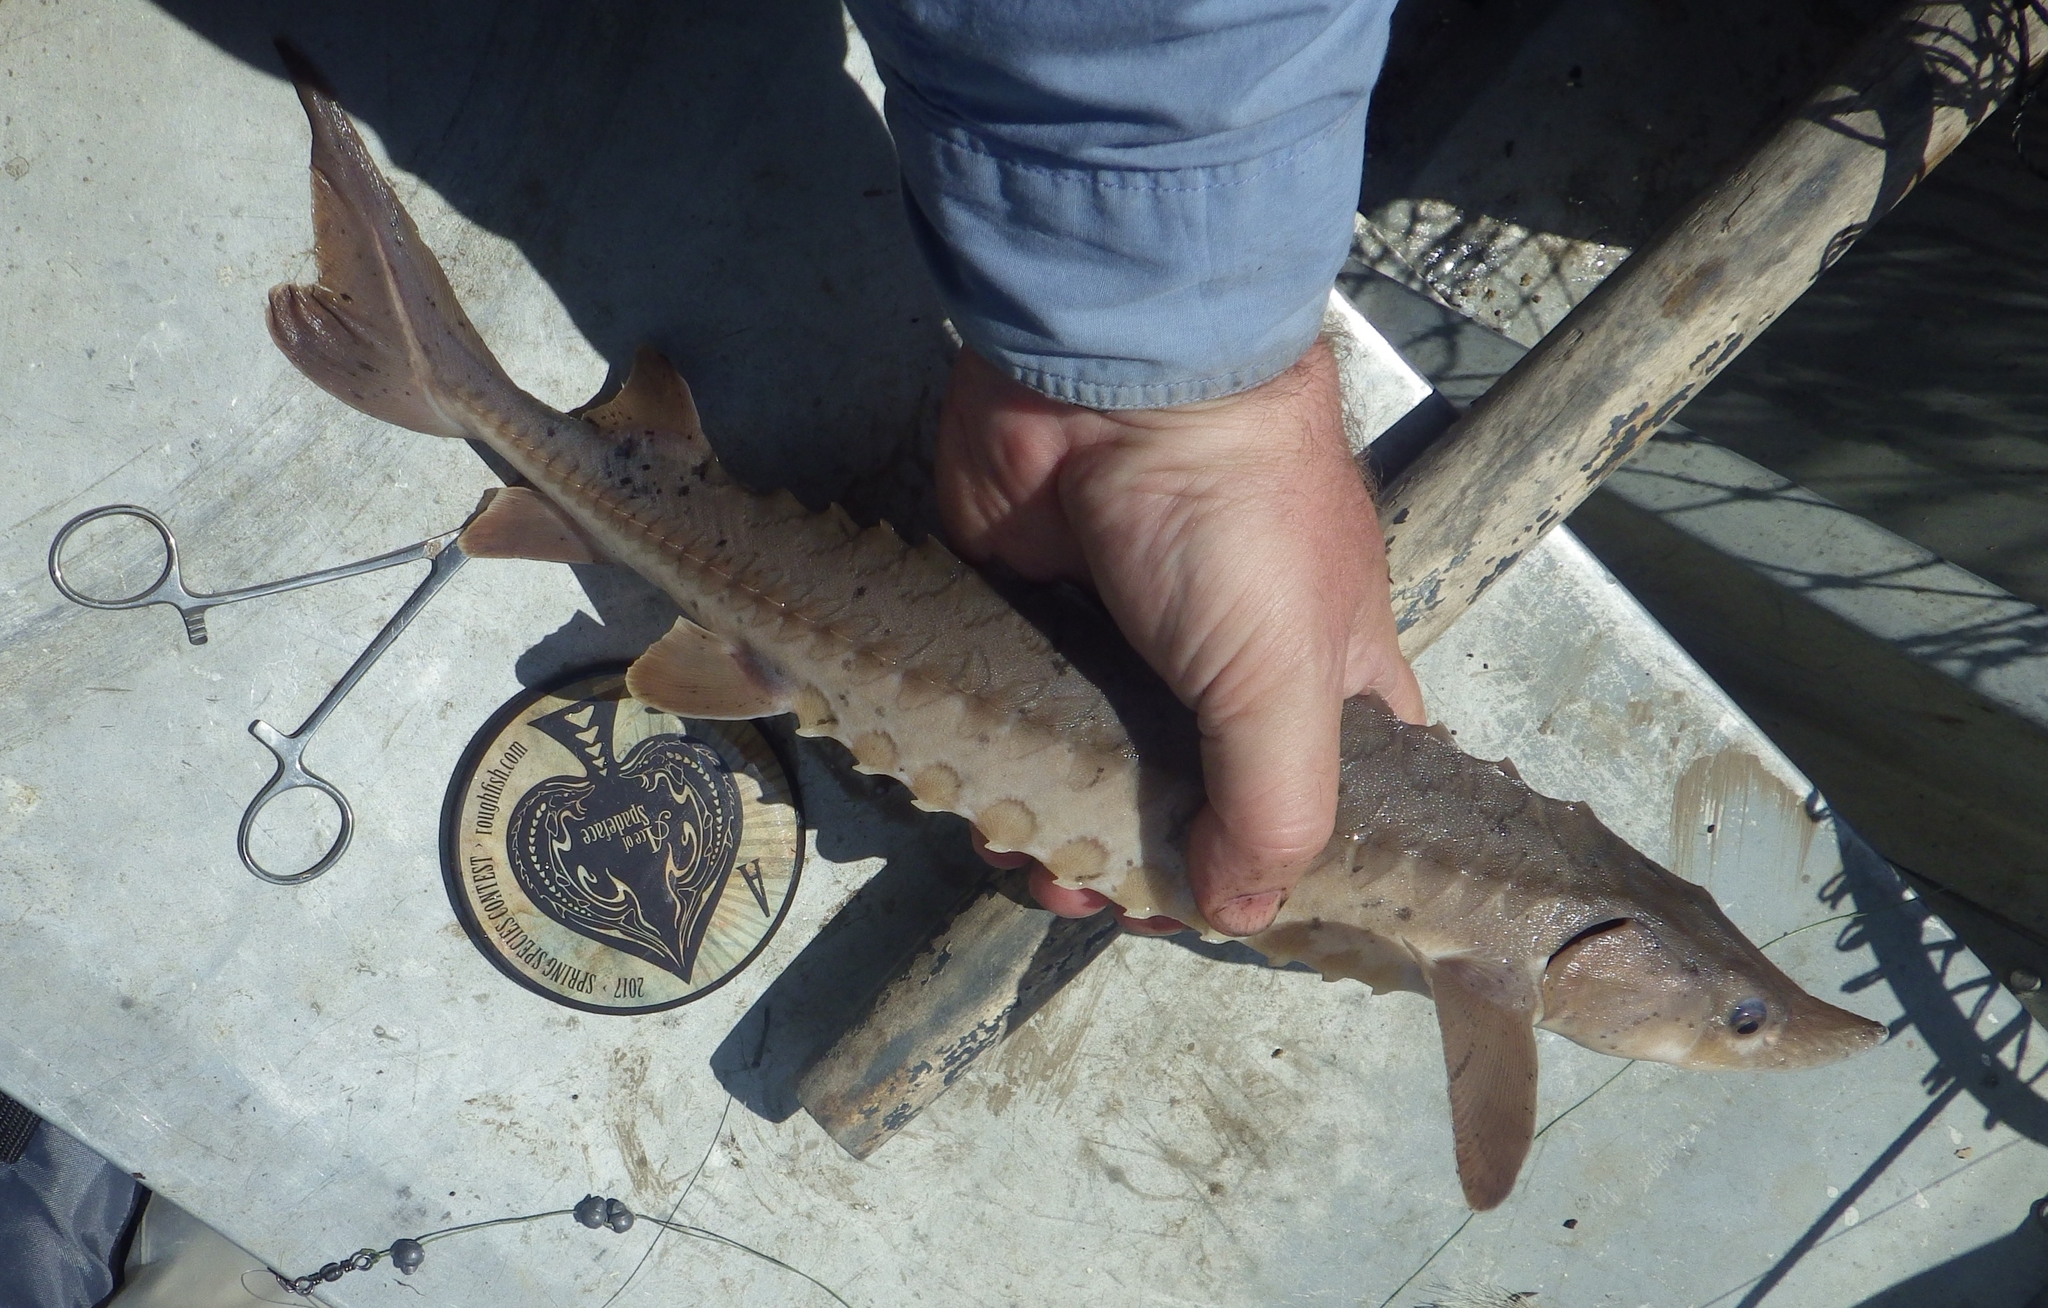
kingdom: Animalia
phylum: Chordata
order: Acipenseriformes
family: Acipenseridae
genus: Acipenser
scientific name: Acipenser fulvescens
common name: Lake sturgeon
